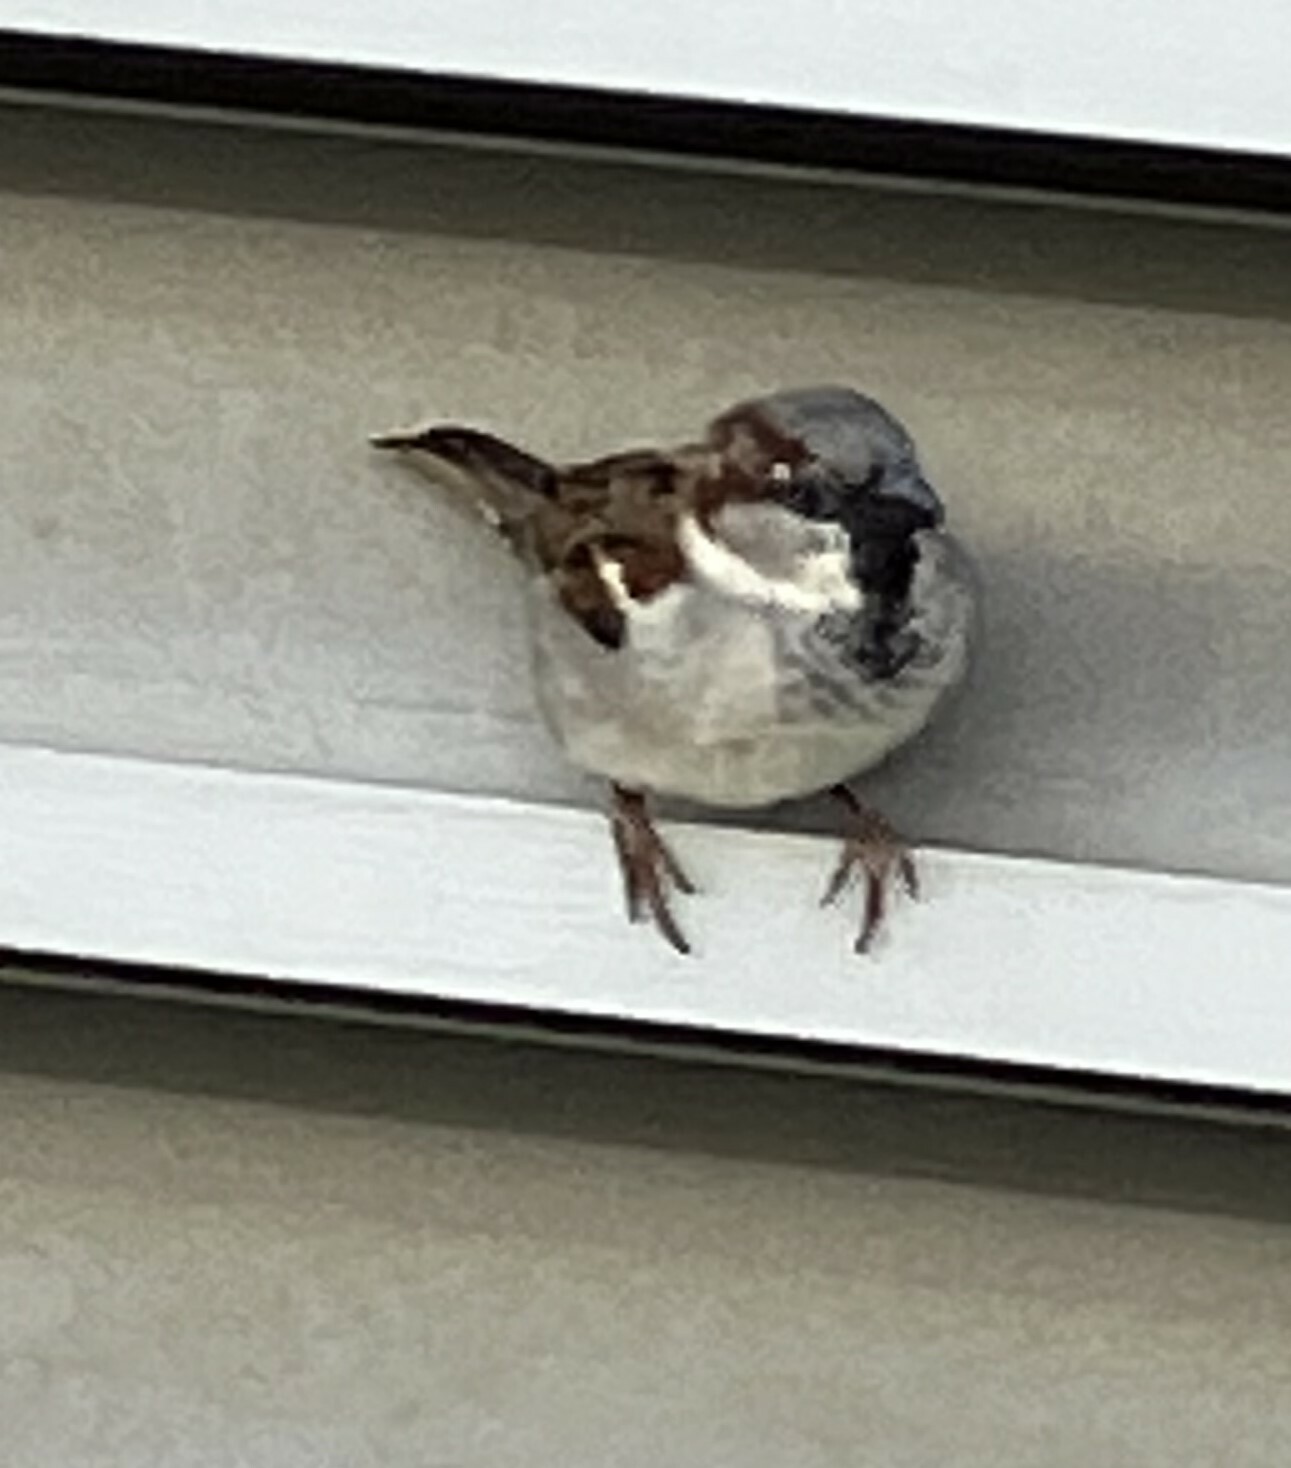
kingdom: Animalia
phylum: Chordata
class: Aves
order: Passeriformes
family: Passeridae
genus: Passer
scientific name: Passer domesticus
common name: House sparrow
